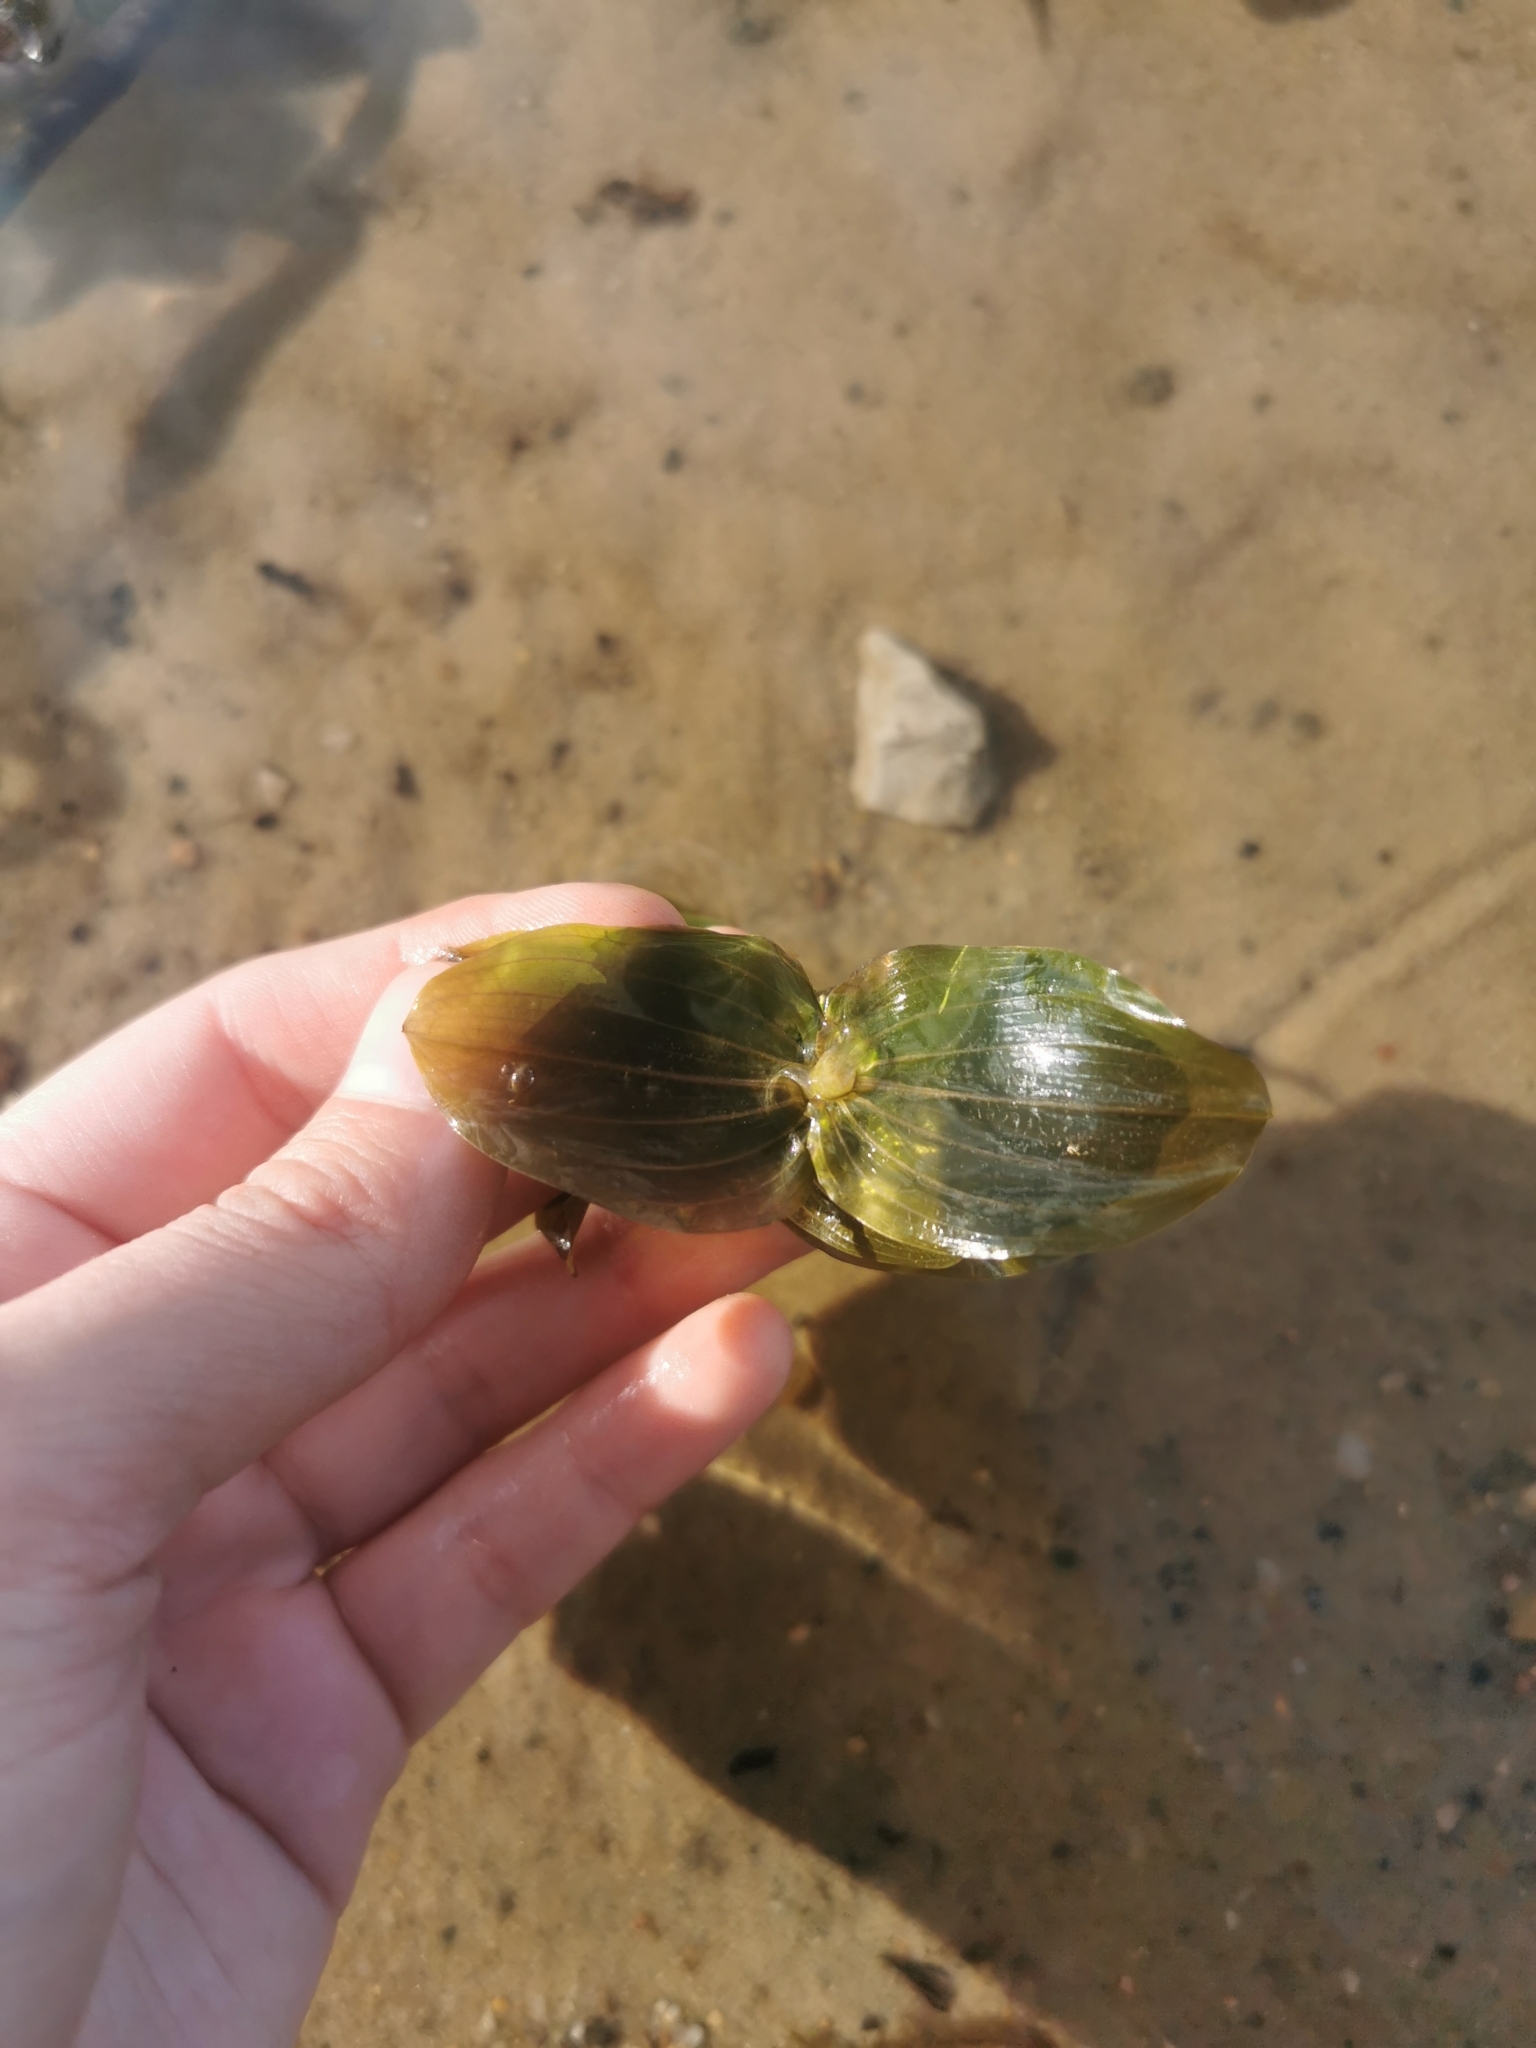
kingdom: Plantae
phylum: Tracheophyta
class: Liliopsida
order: Alismatales
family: Potamogetonaceae
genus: Potamogeton
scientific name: Potamogeton perfoliatus
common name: Perfoliate pondweed
